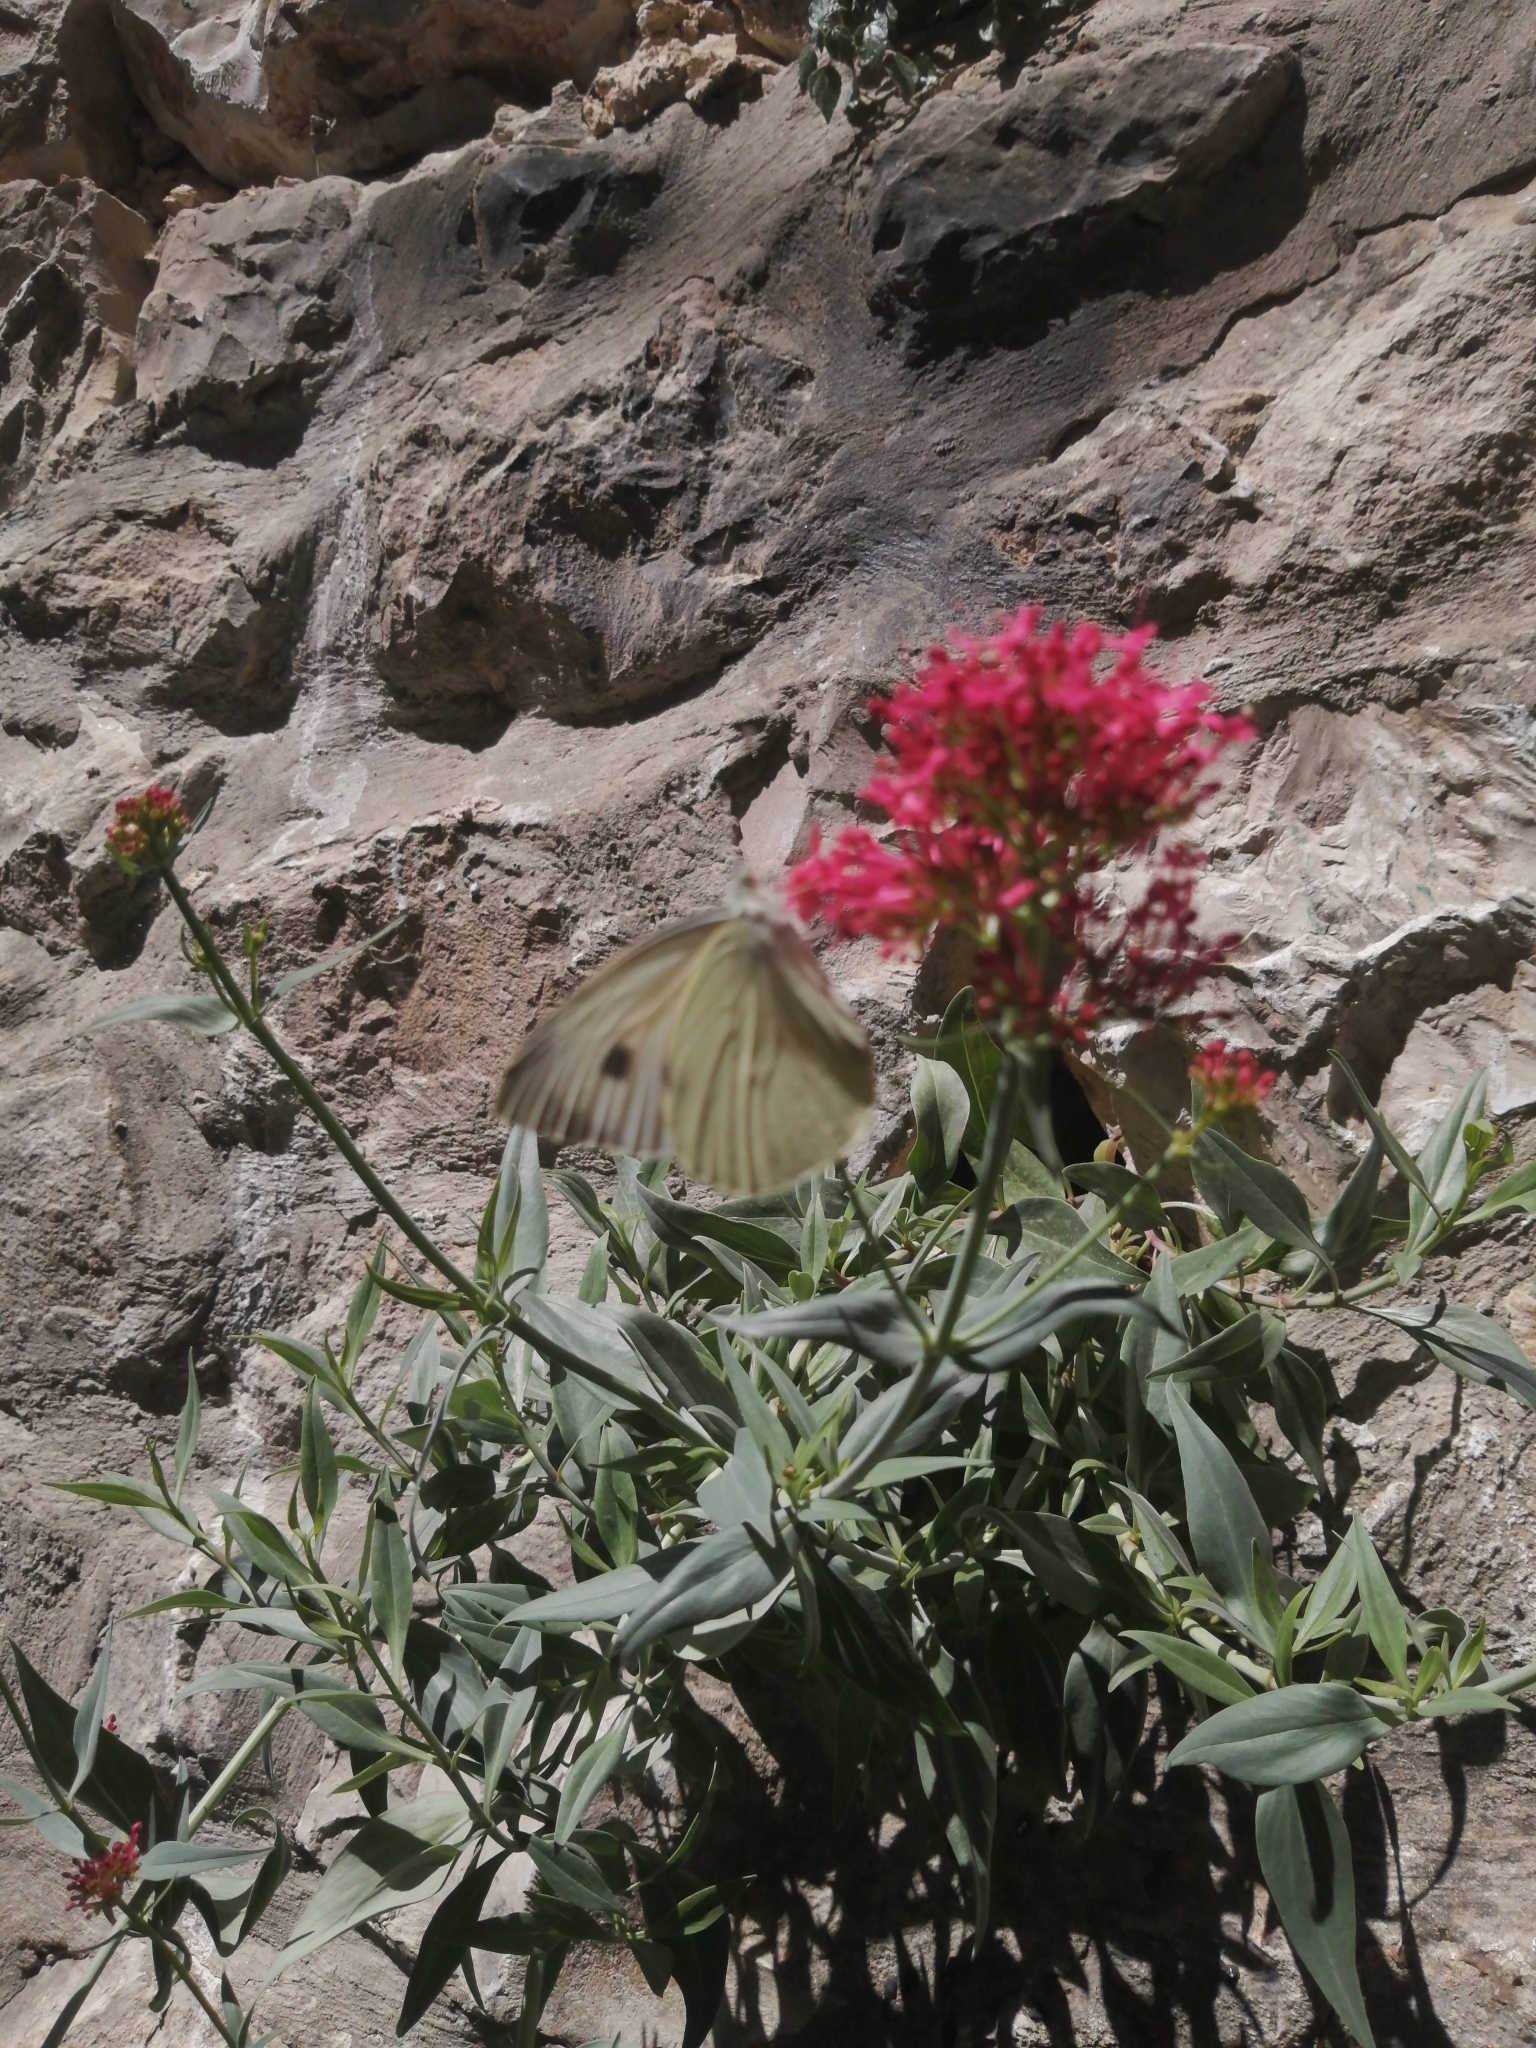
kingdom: Animalia
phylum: Arthropoda
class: Insecta
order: Lepidoptera
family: Pieridae
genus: Pieris
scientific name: Pieris brassicae
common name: Large white
